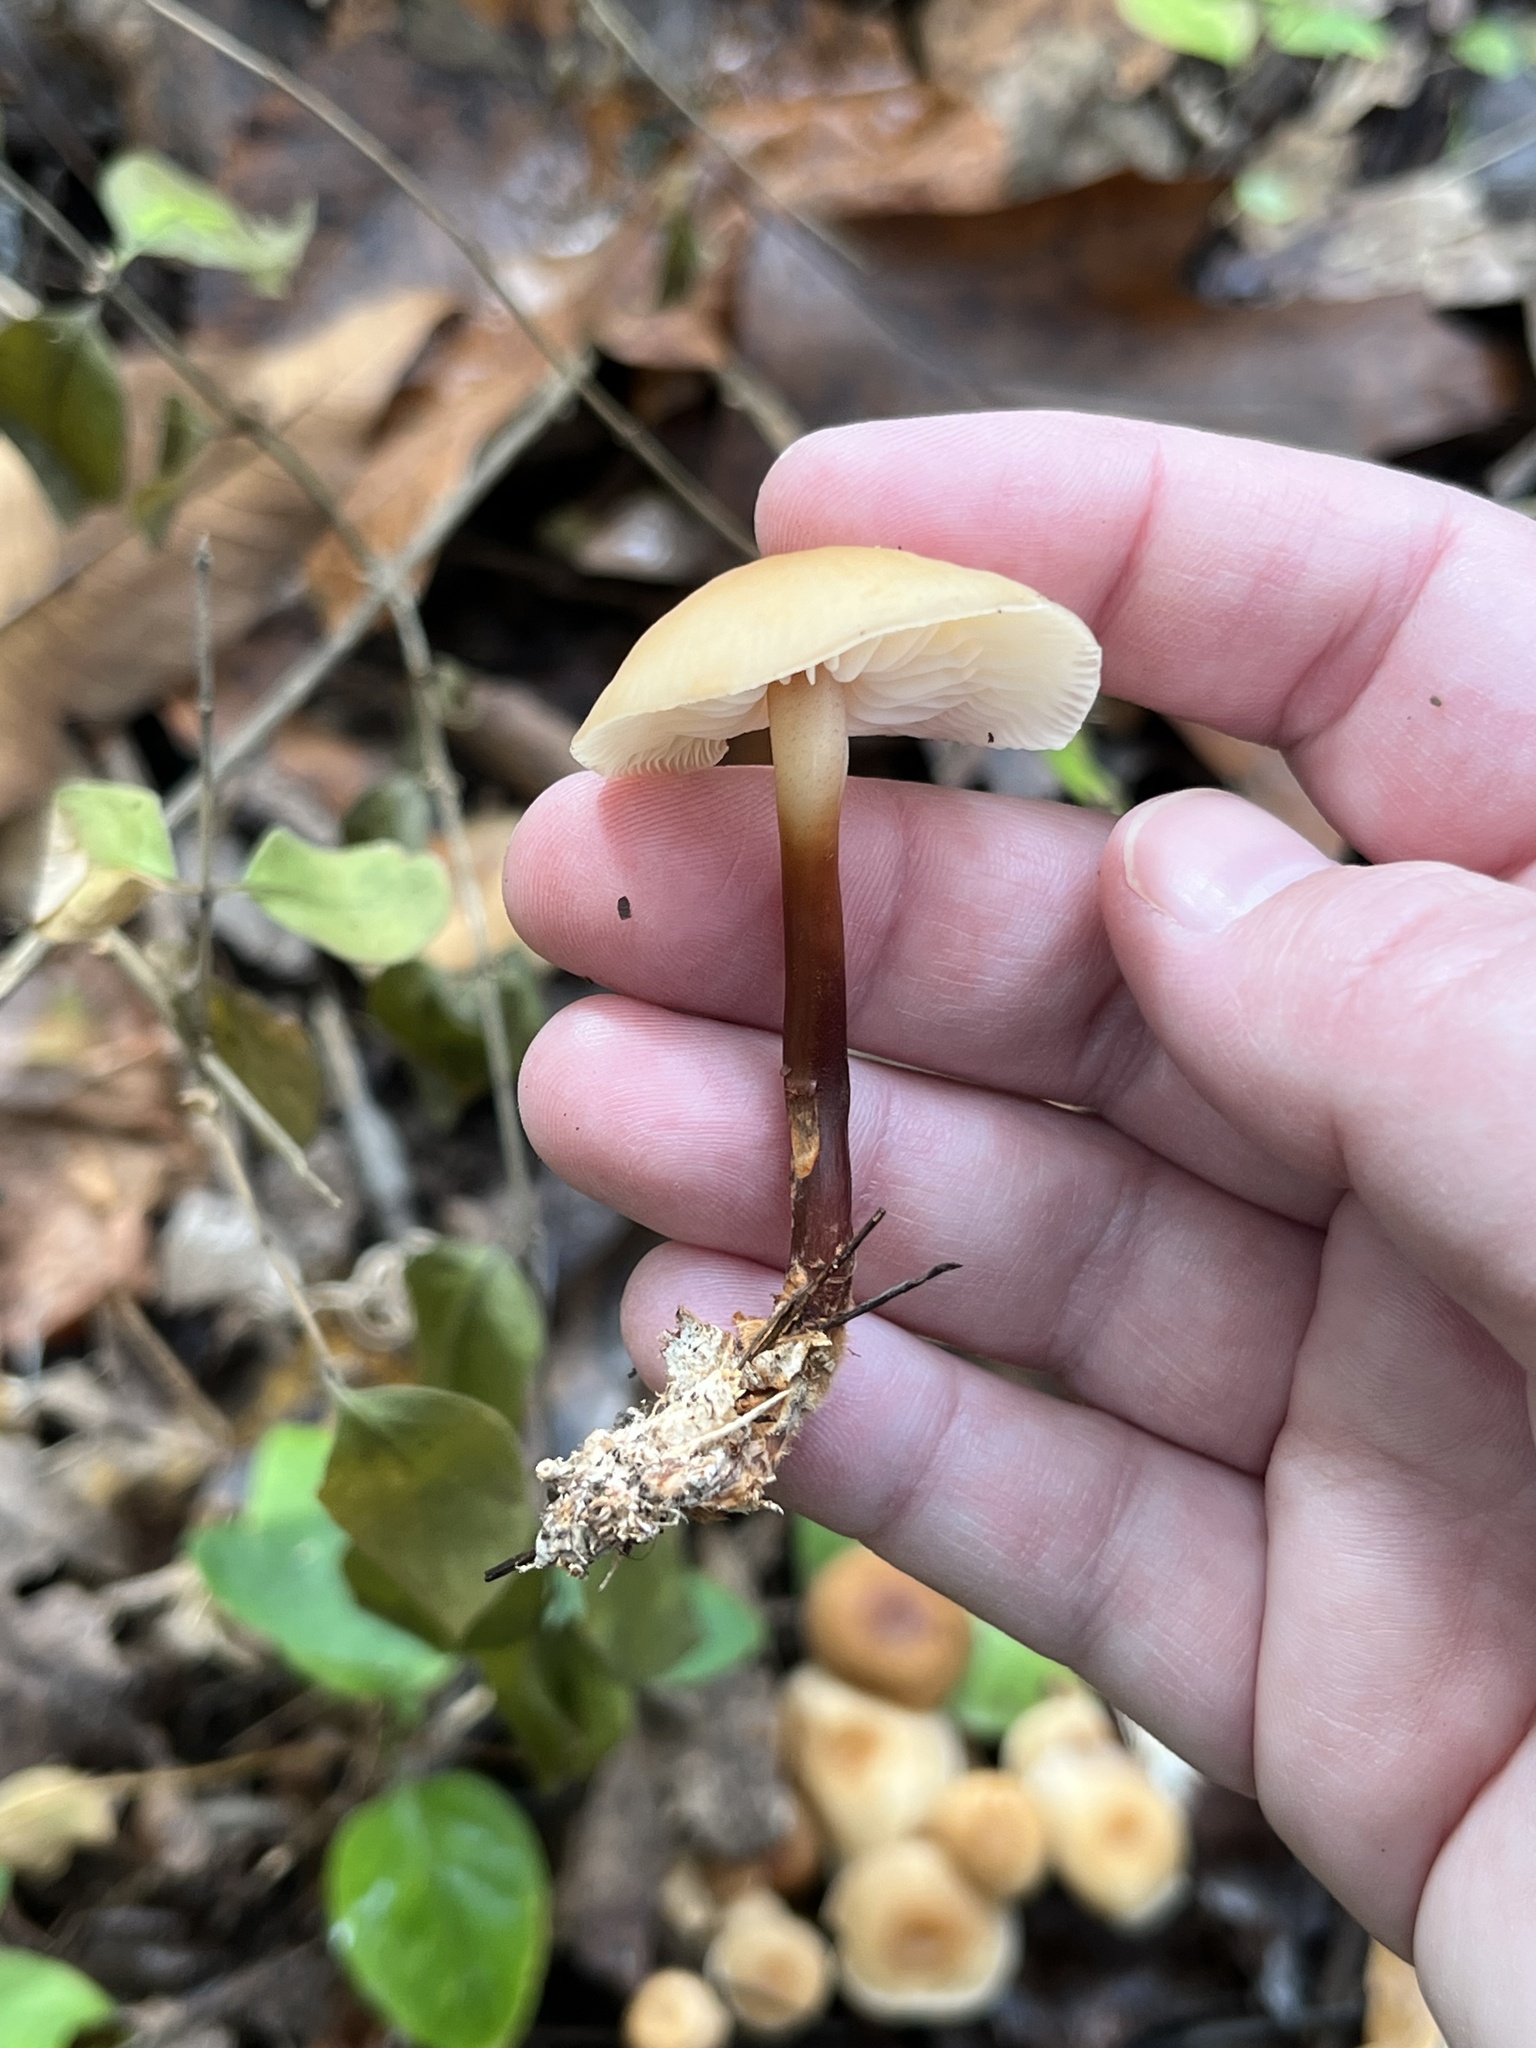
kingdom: Fungi
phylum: Basidiomycota
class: Agaricomycetes
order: Agaricales
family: Omphalotaceae
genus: Gymnopus
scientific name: Gymnopus dryophilus
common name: Penny top
